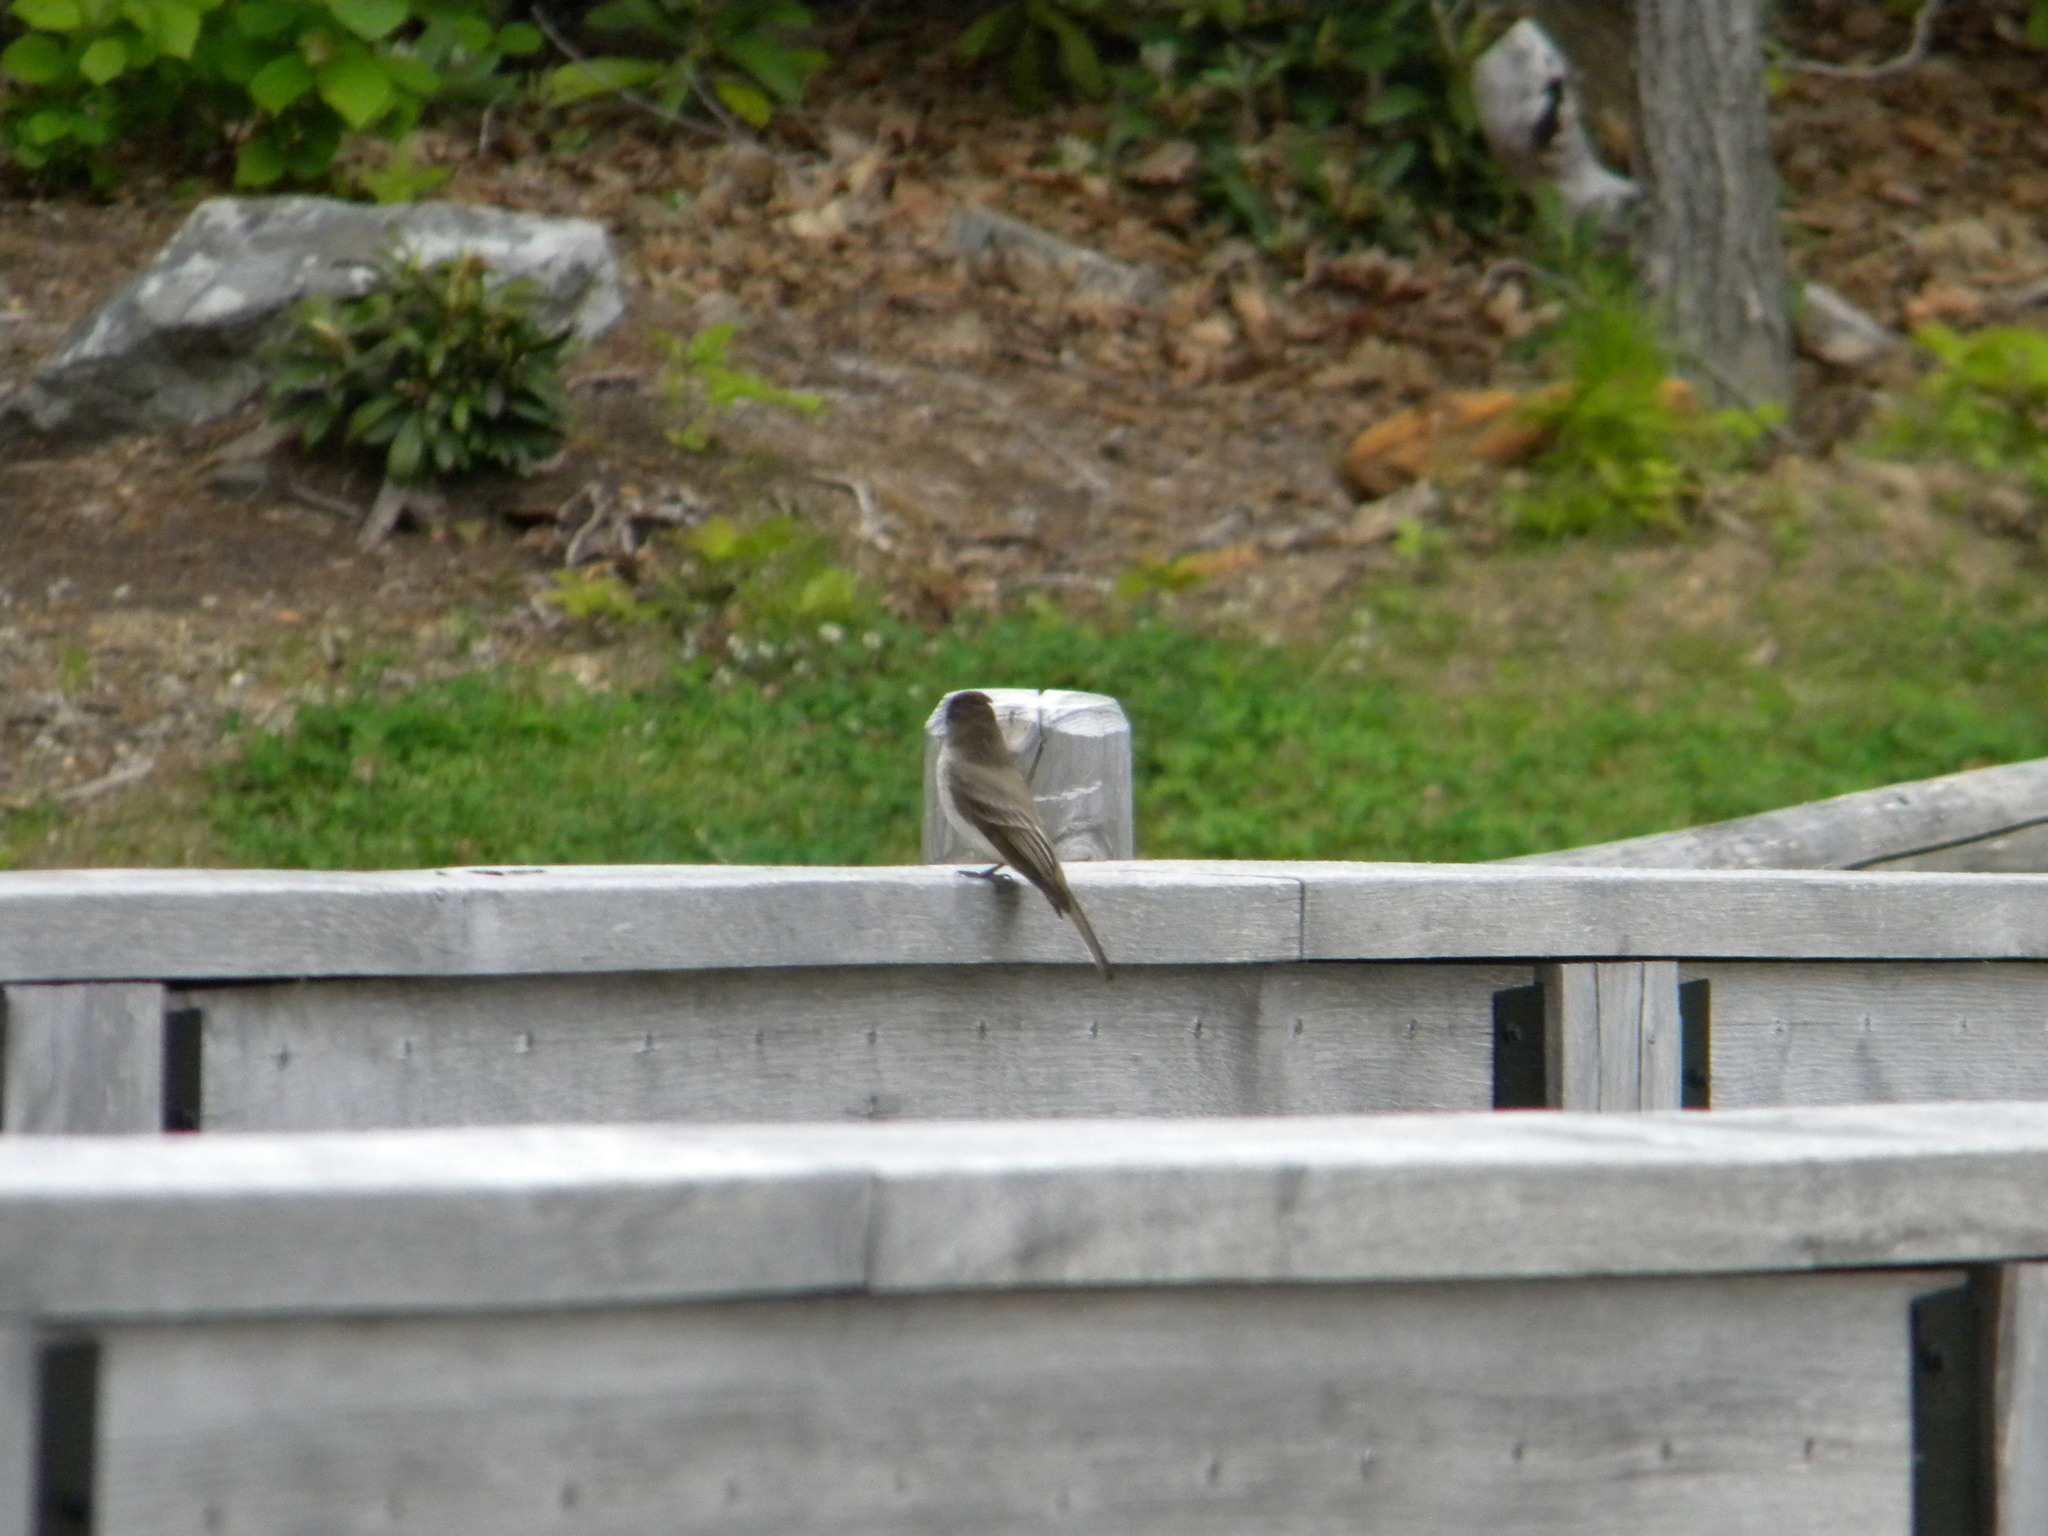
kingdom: Animalia
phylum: Chordata
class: Aves
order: Passeriformes
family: Tyrannidae
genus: Sayornis
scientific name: Sayornis phoebe
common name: Eastern phoebe
